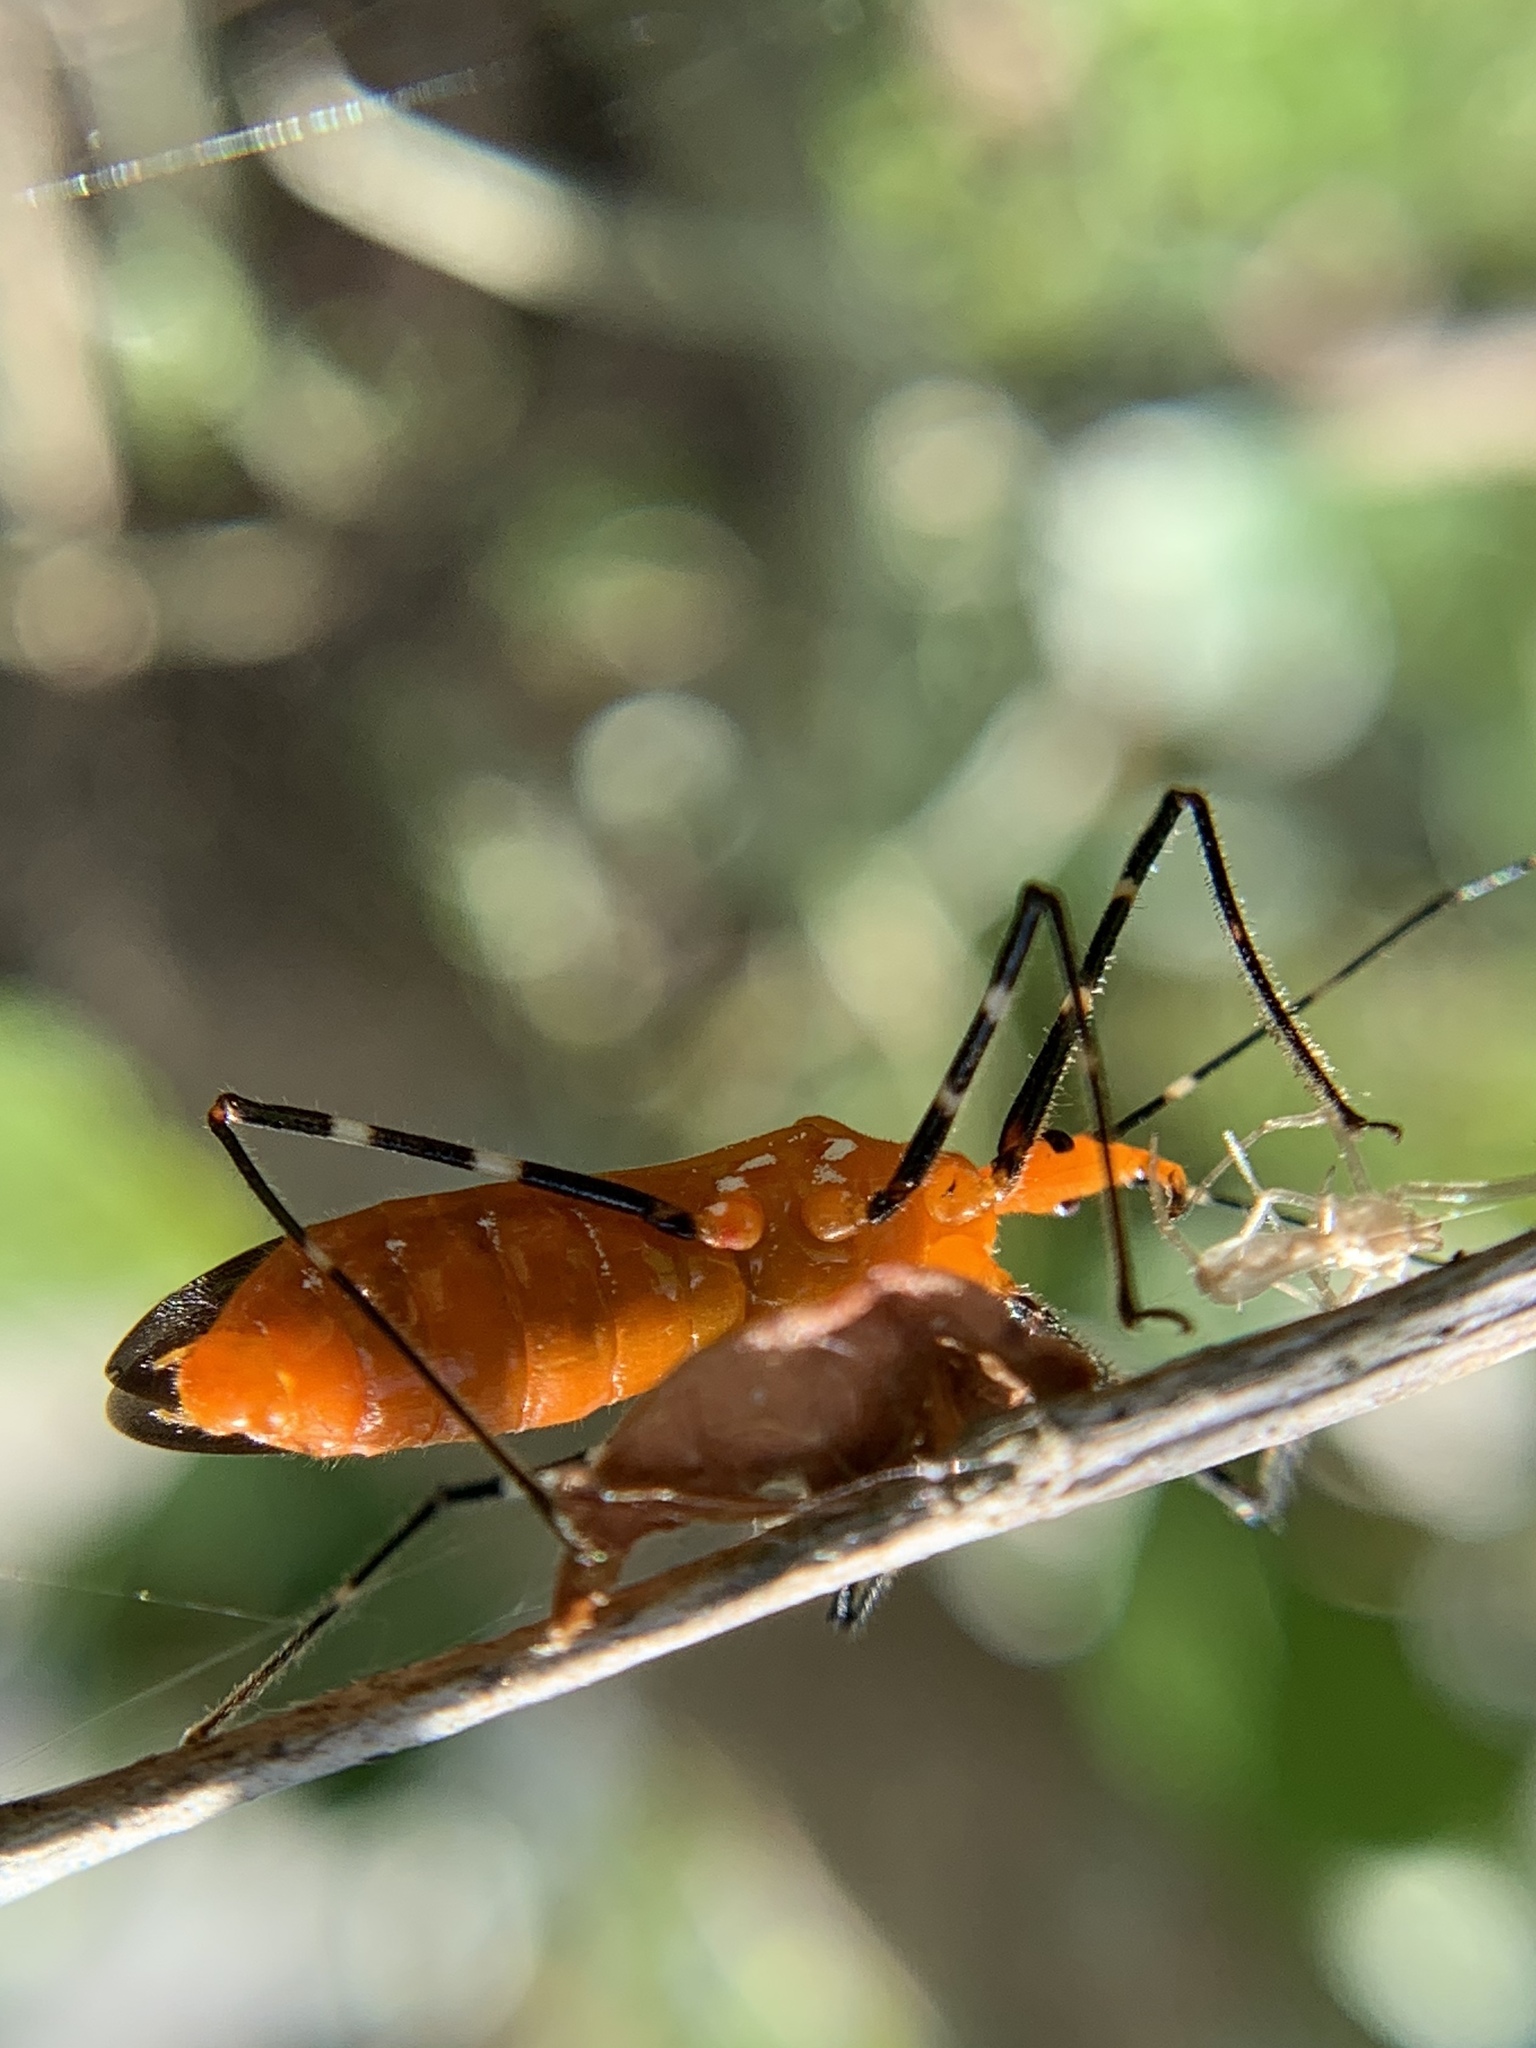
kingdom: Animalia
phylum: Arthropoda
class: Insecta
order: Hemiptera
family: Reduviidae
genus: Zelus
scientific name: Zelus longipes
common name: Milkweed assassin bug
